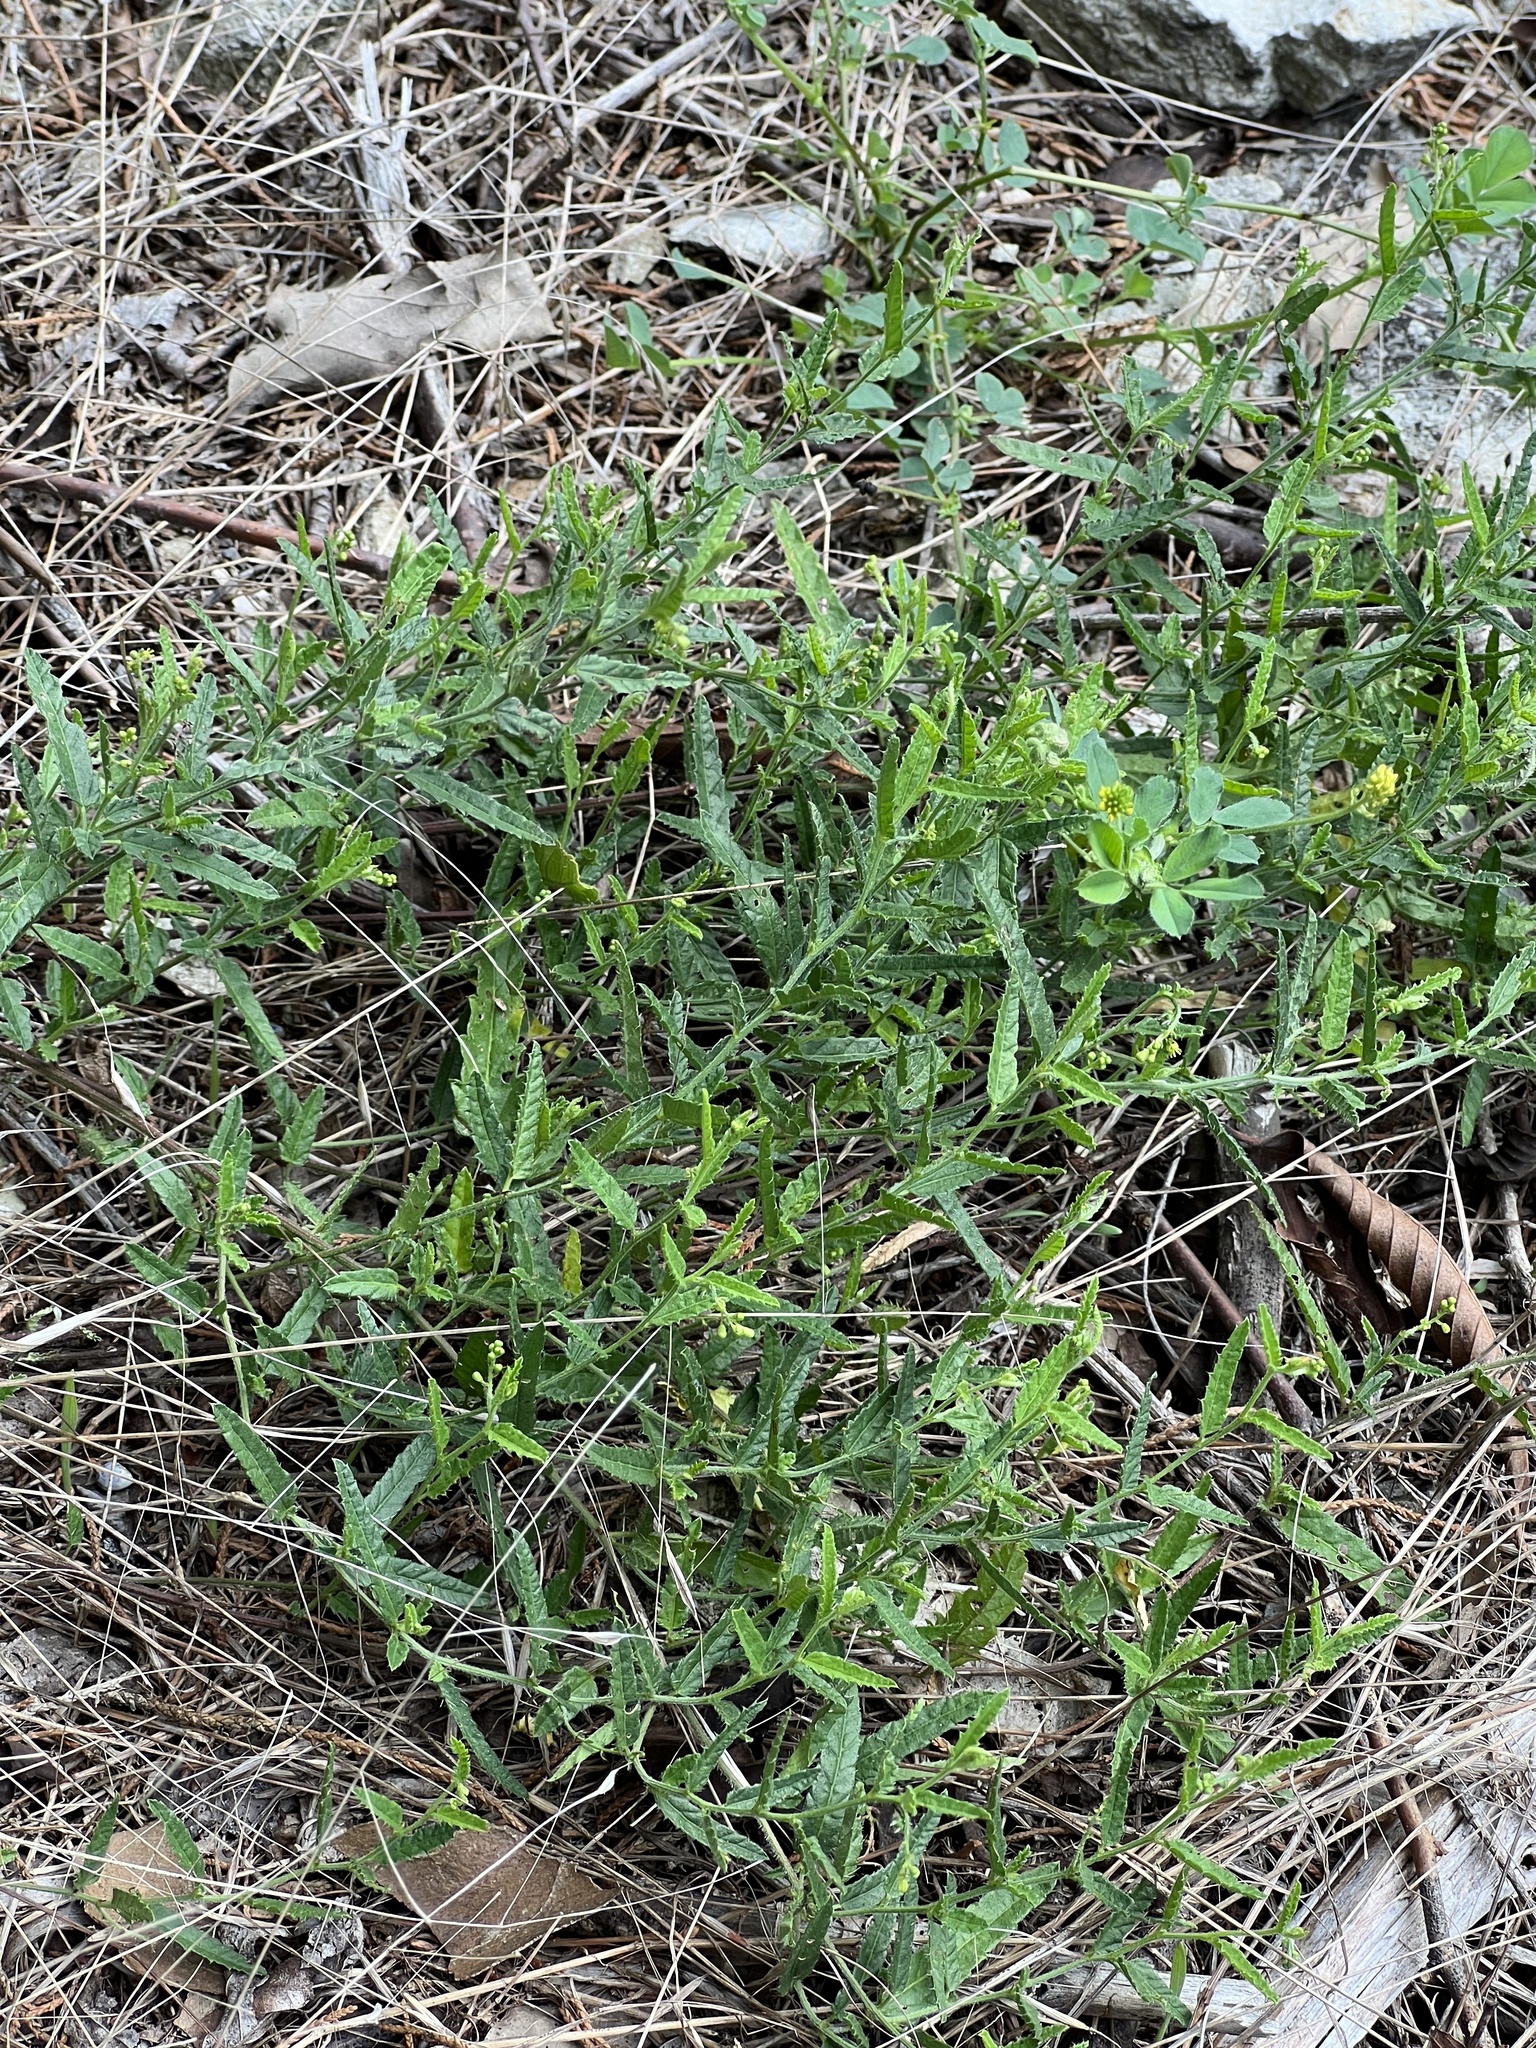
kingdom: Plantae
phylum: Tracheophyta
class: Magnoliopsida
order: Malpighiales
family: Euphorbiaceae
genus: Tragia
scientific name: Tragia ramosa
